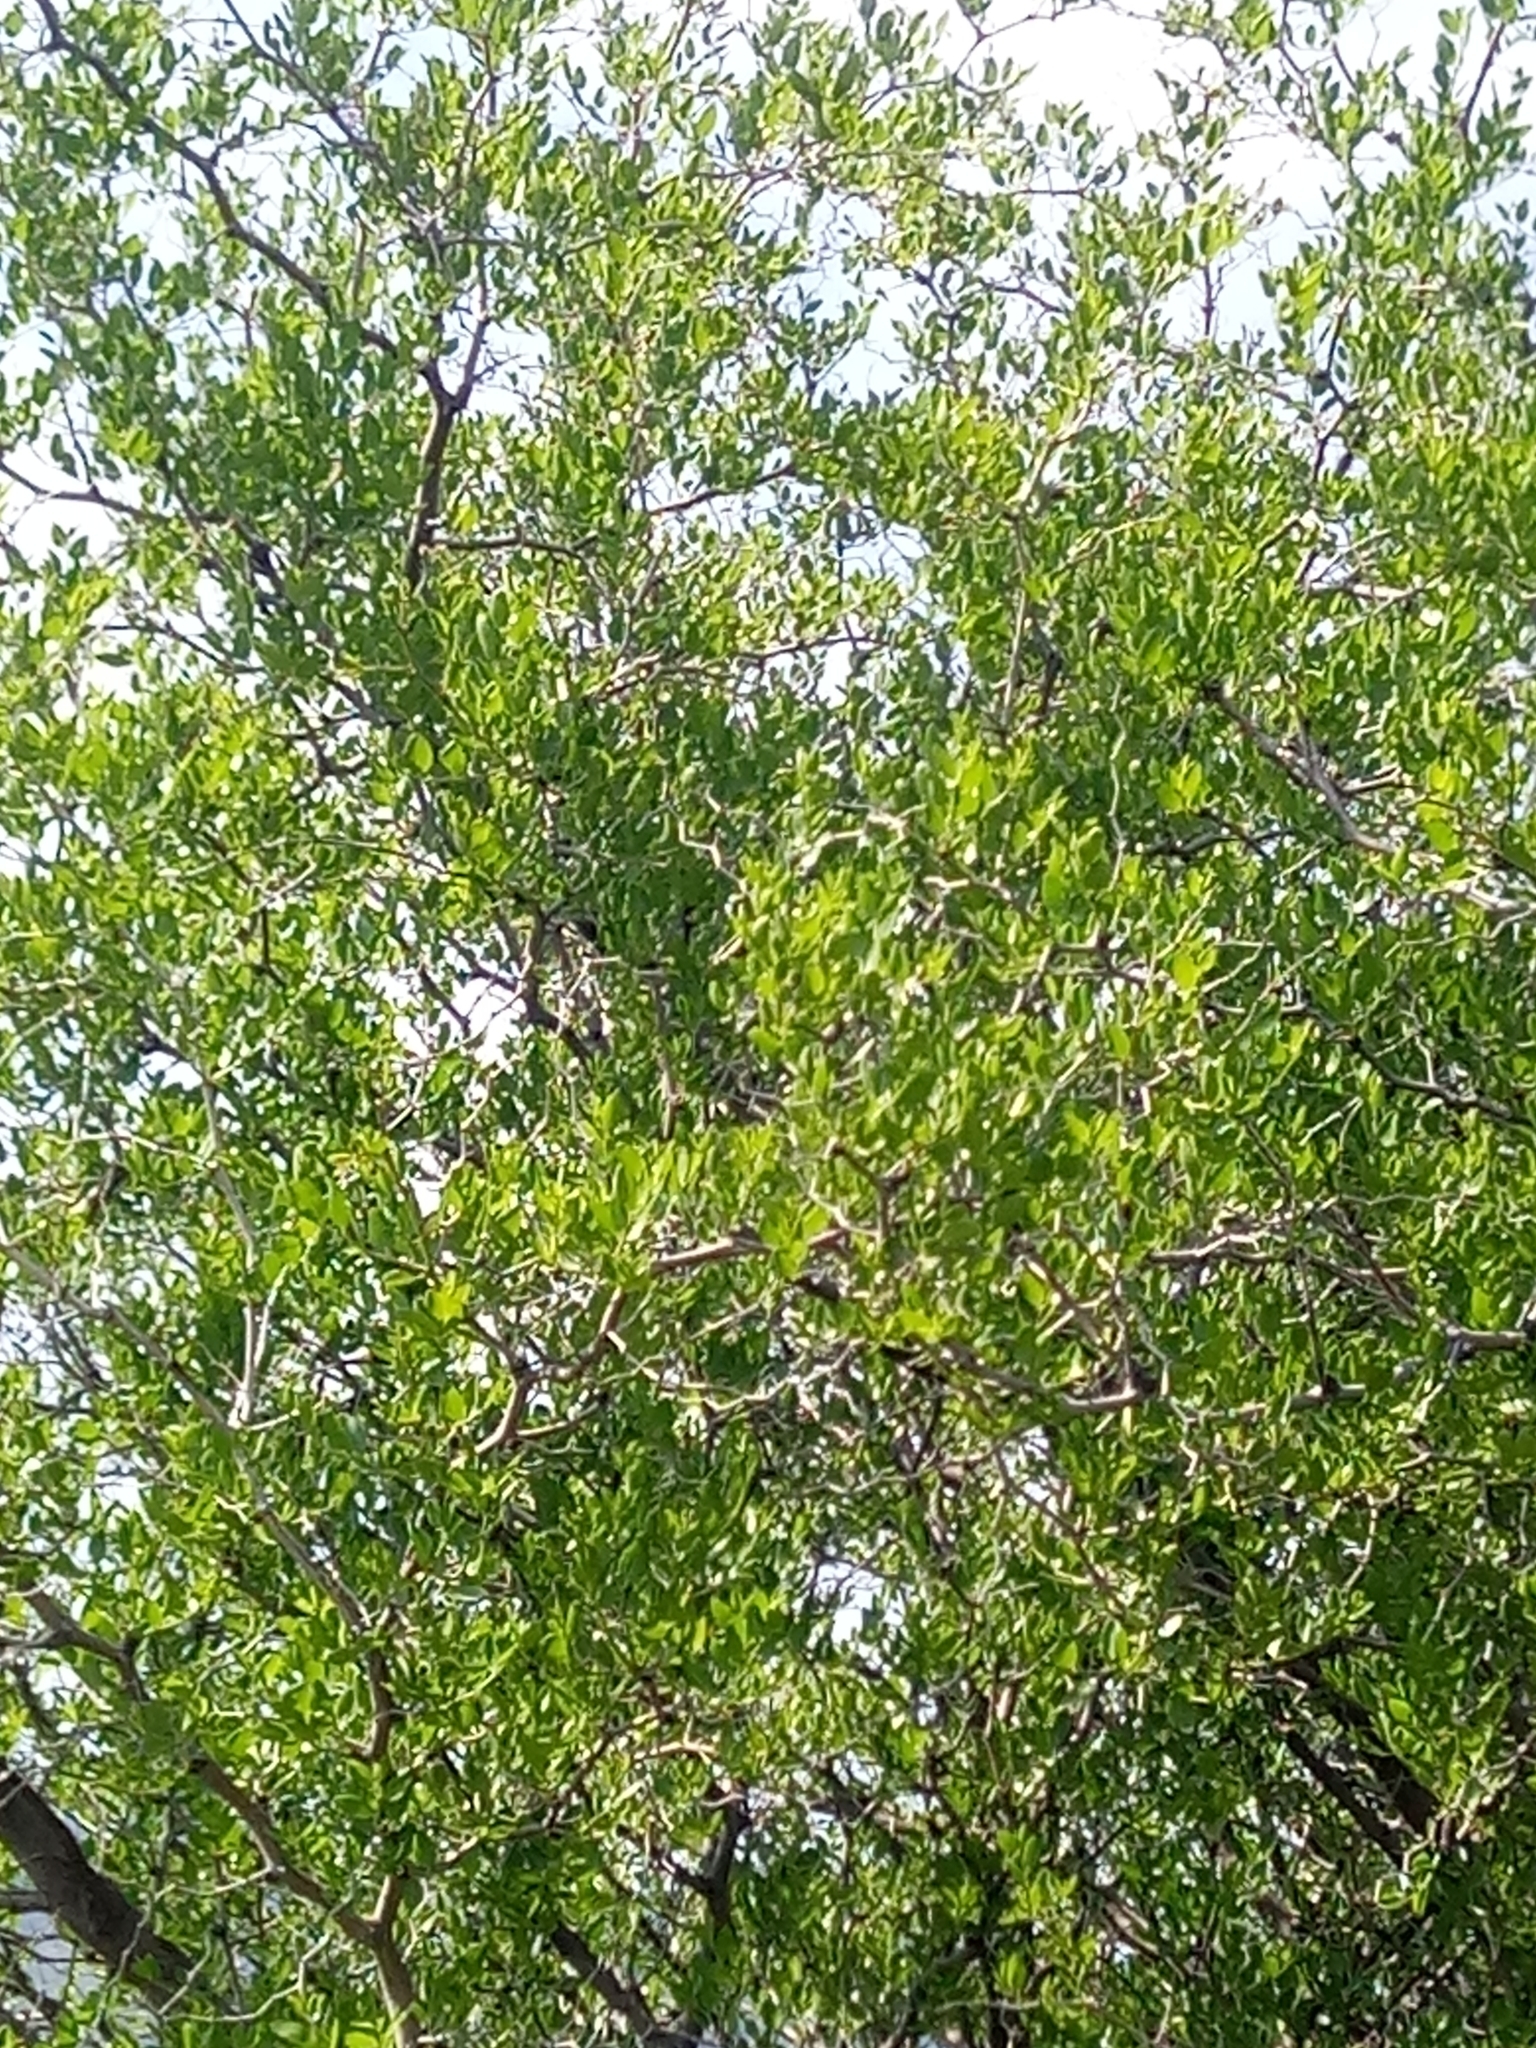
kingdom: Plantae
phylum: Tracheophyta
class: Magnoliopsida
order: Rosales
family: Rhamnaceae
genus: Ziziphus
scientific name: Ziziphus lotus
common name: Lotus
